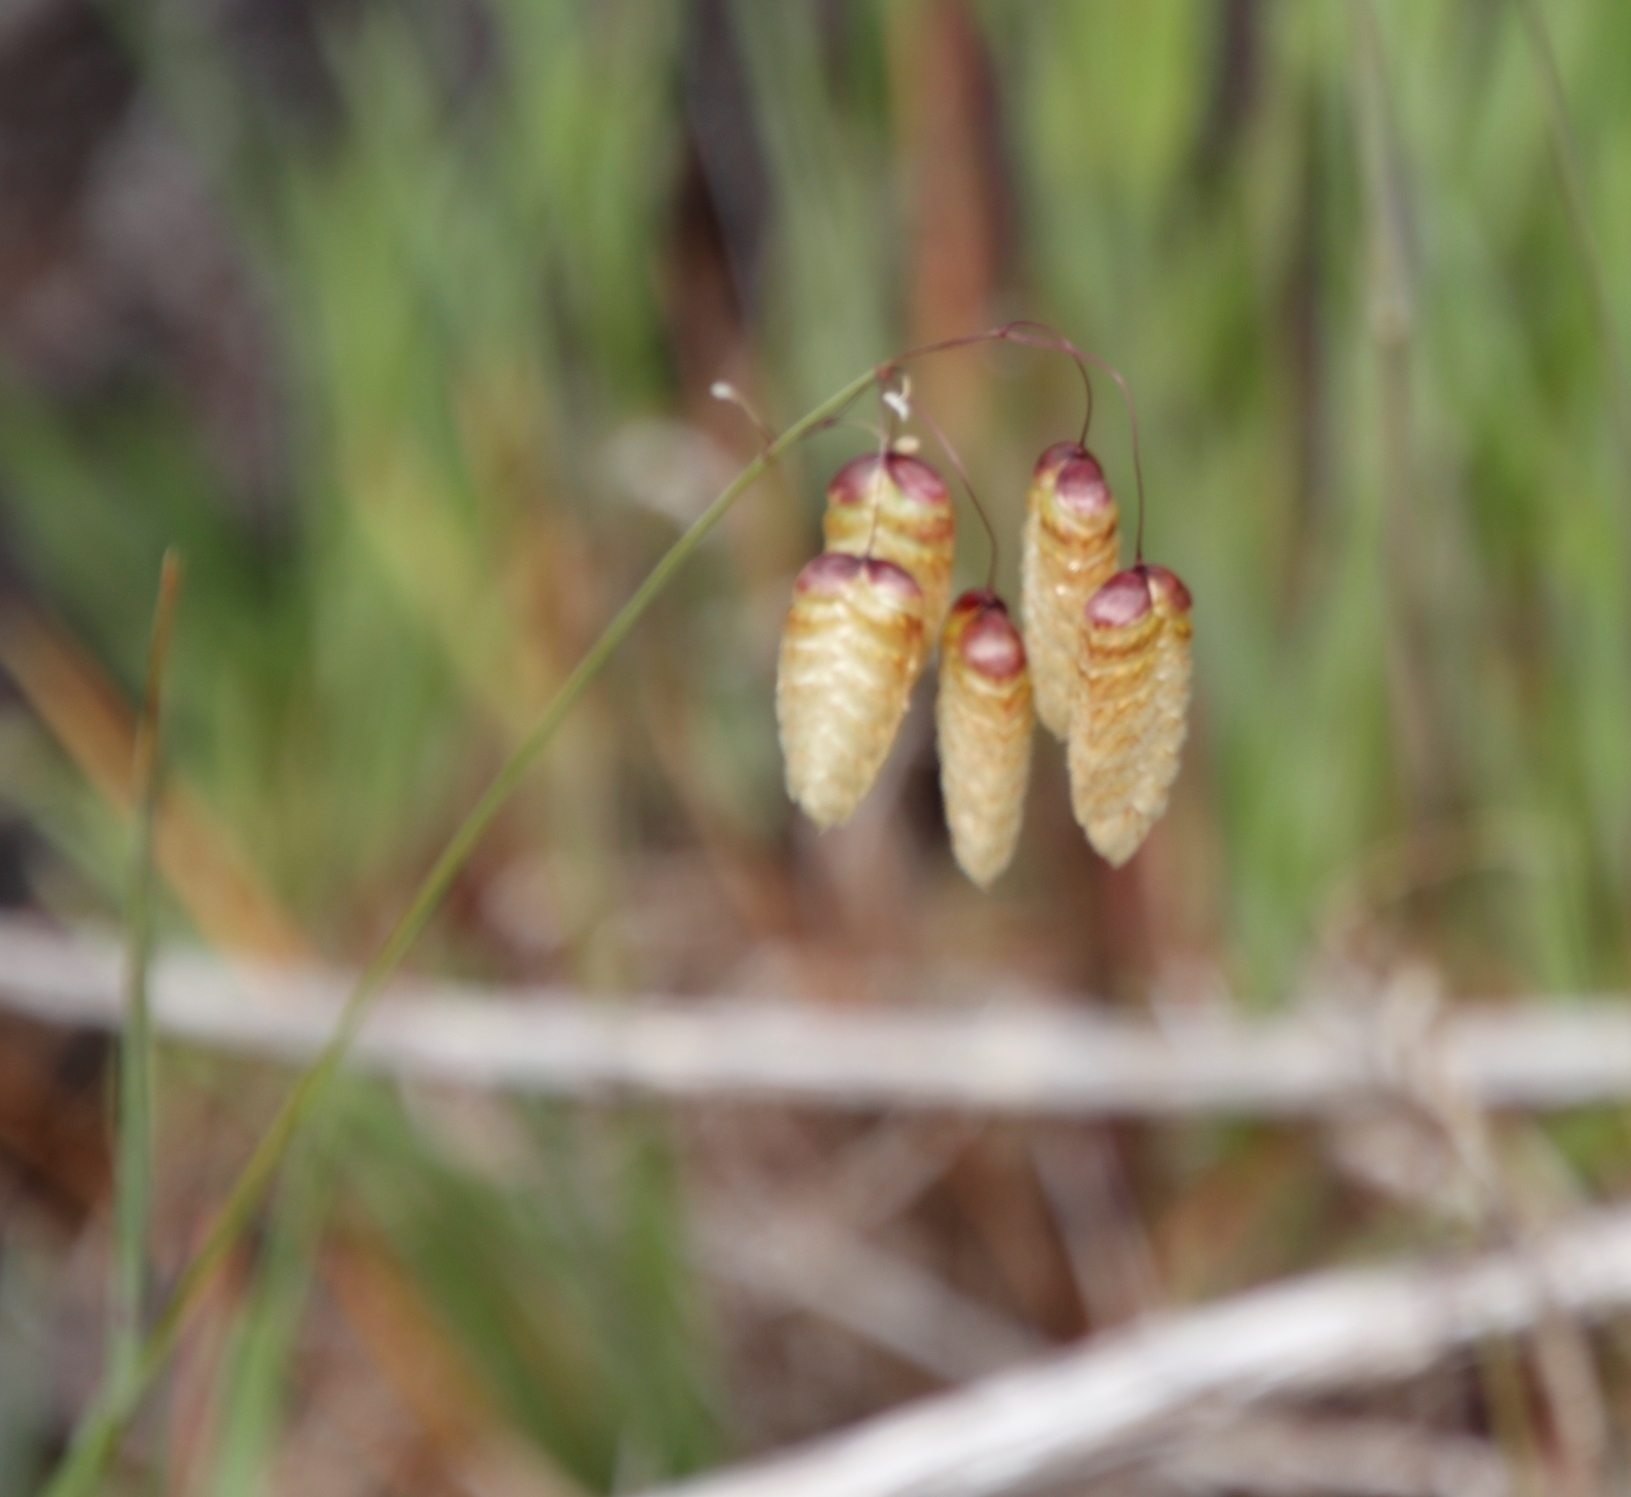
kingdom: Plantae
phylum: Tracheophyta
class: Liliopsida
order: Poales
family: Poaceae
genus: Briza
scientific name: Briza maxima
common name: Big quakinggrass
